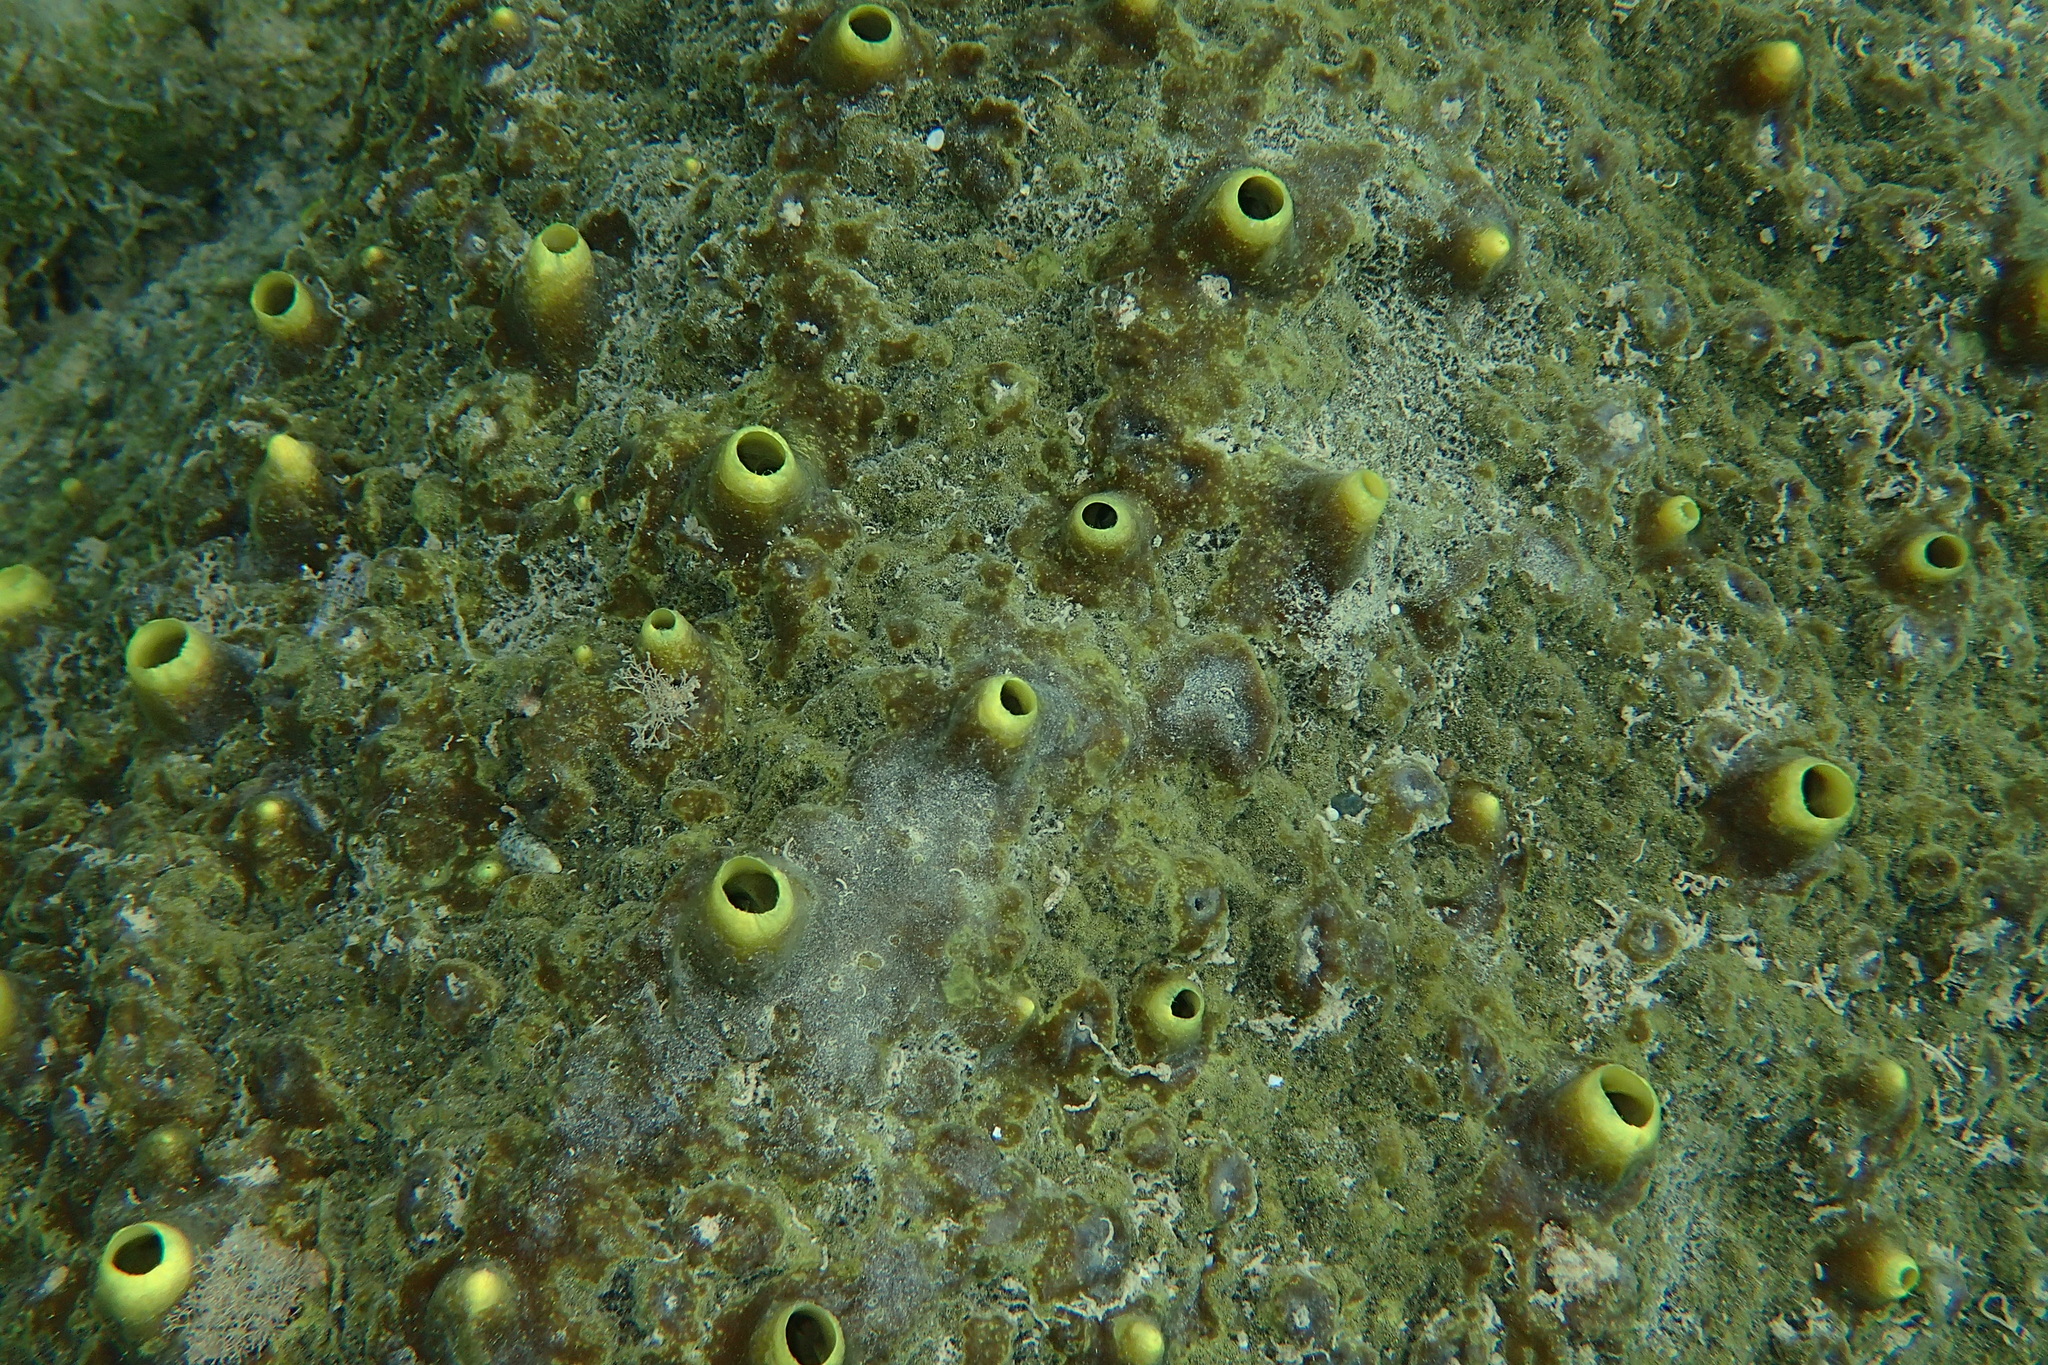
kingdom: Animalia
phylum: Porifera
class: Demospongiae
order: Clionaida
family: Clionaidae
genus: Cliona
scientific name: Cliona viridis
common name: Green boring sponge
